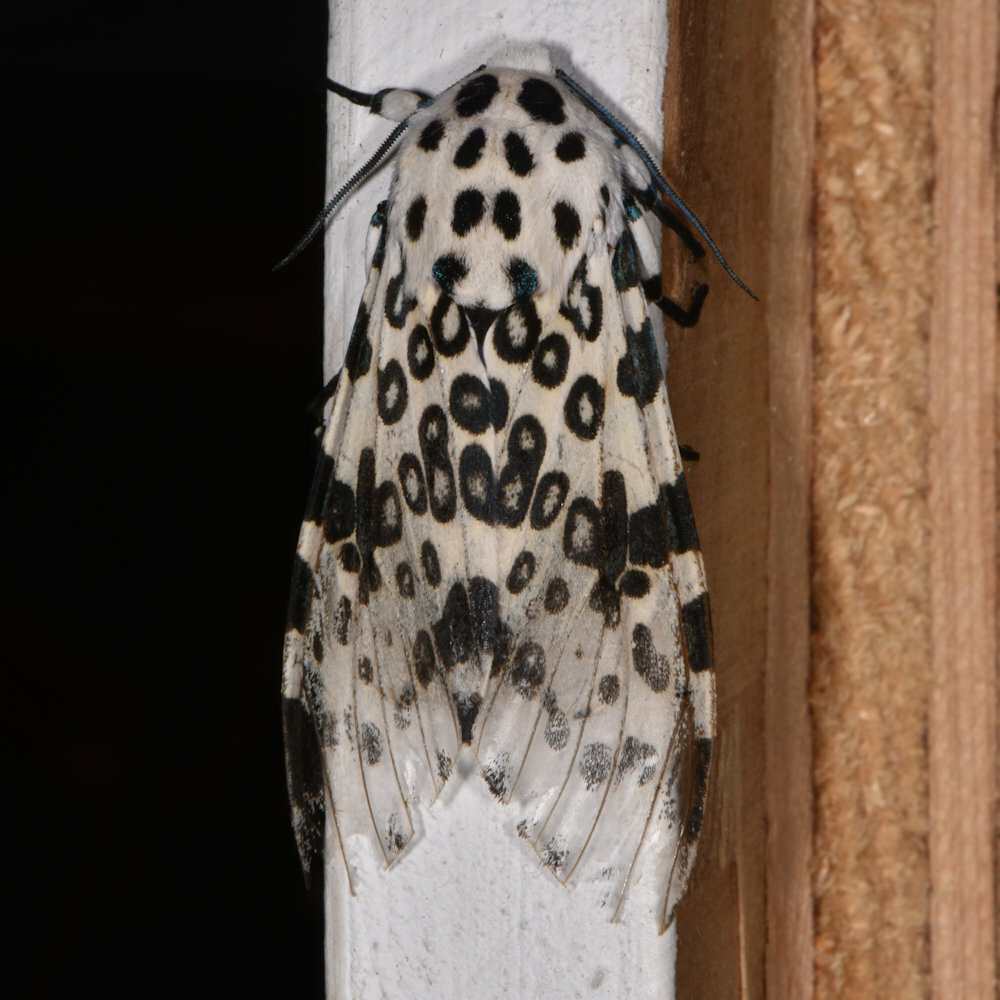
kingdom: Animalia
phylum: Arthropoda
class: Insecta
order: Lepidoptera
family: Erebidae
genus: Hypercompe
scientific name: Hypercompe scribonia
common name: Giant leopard moth
